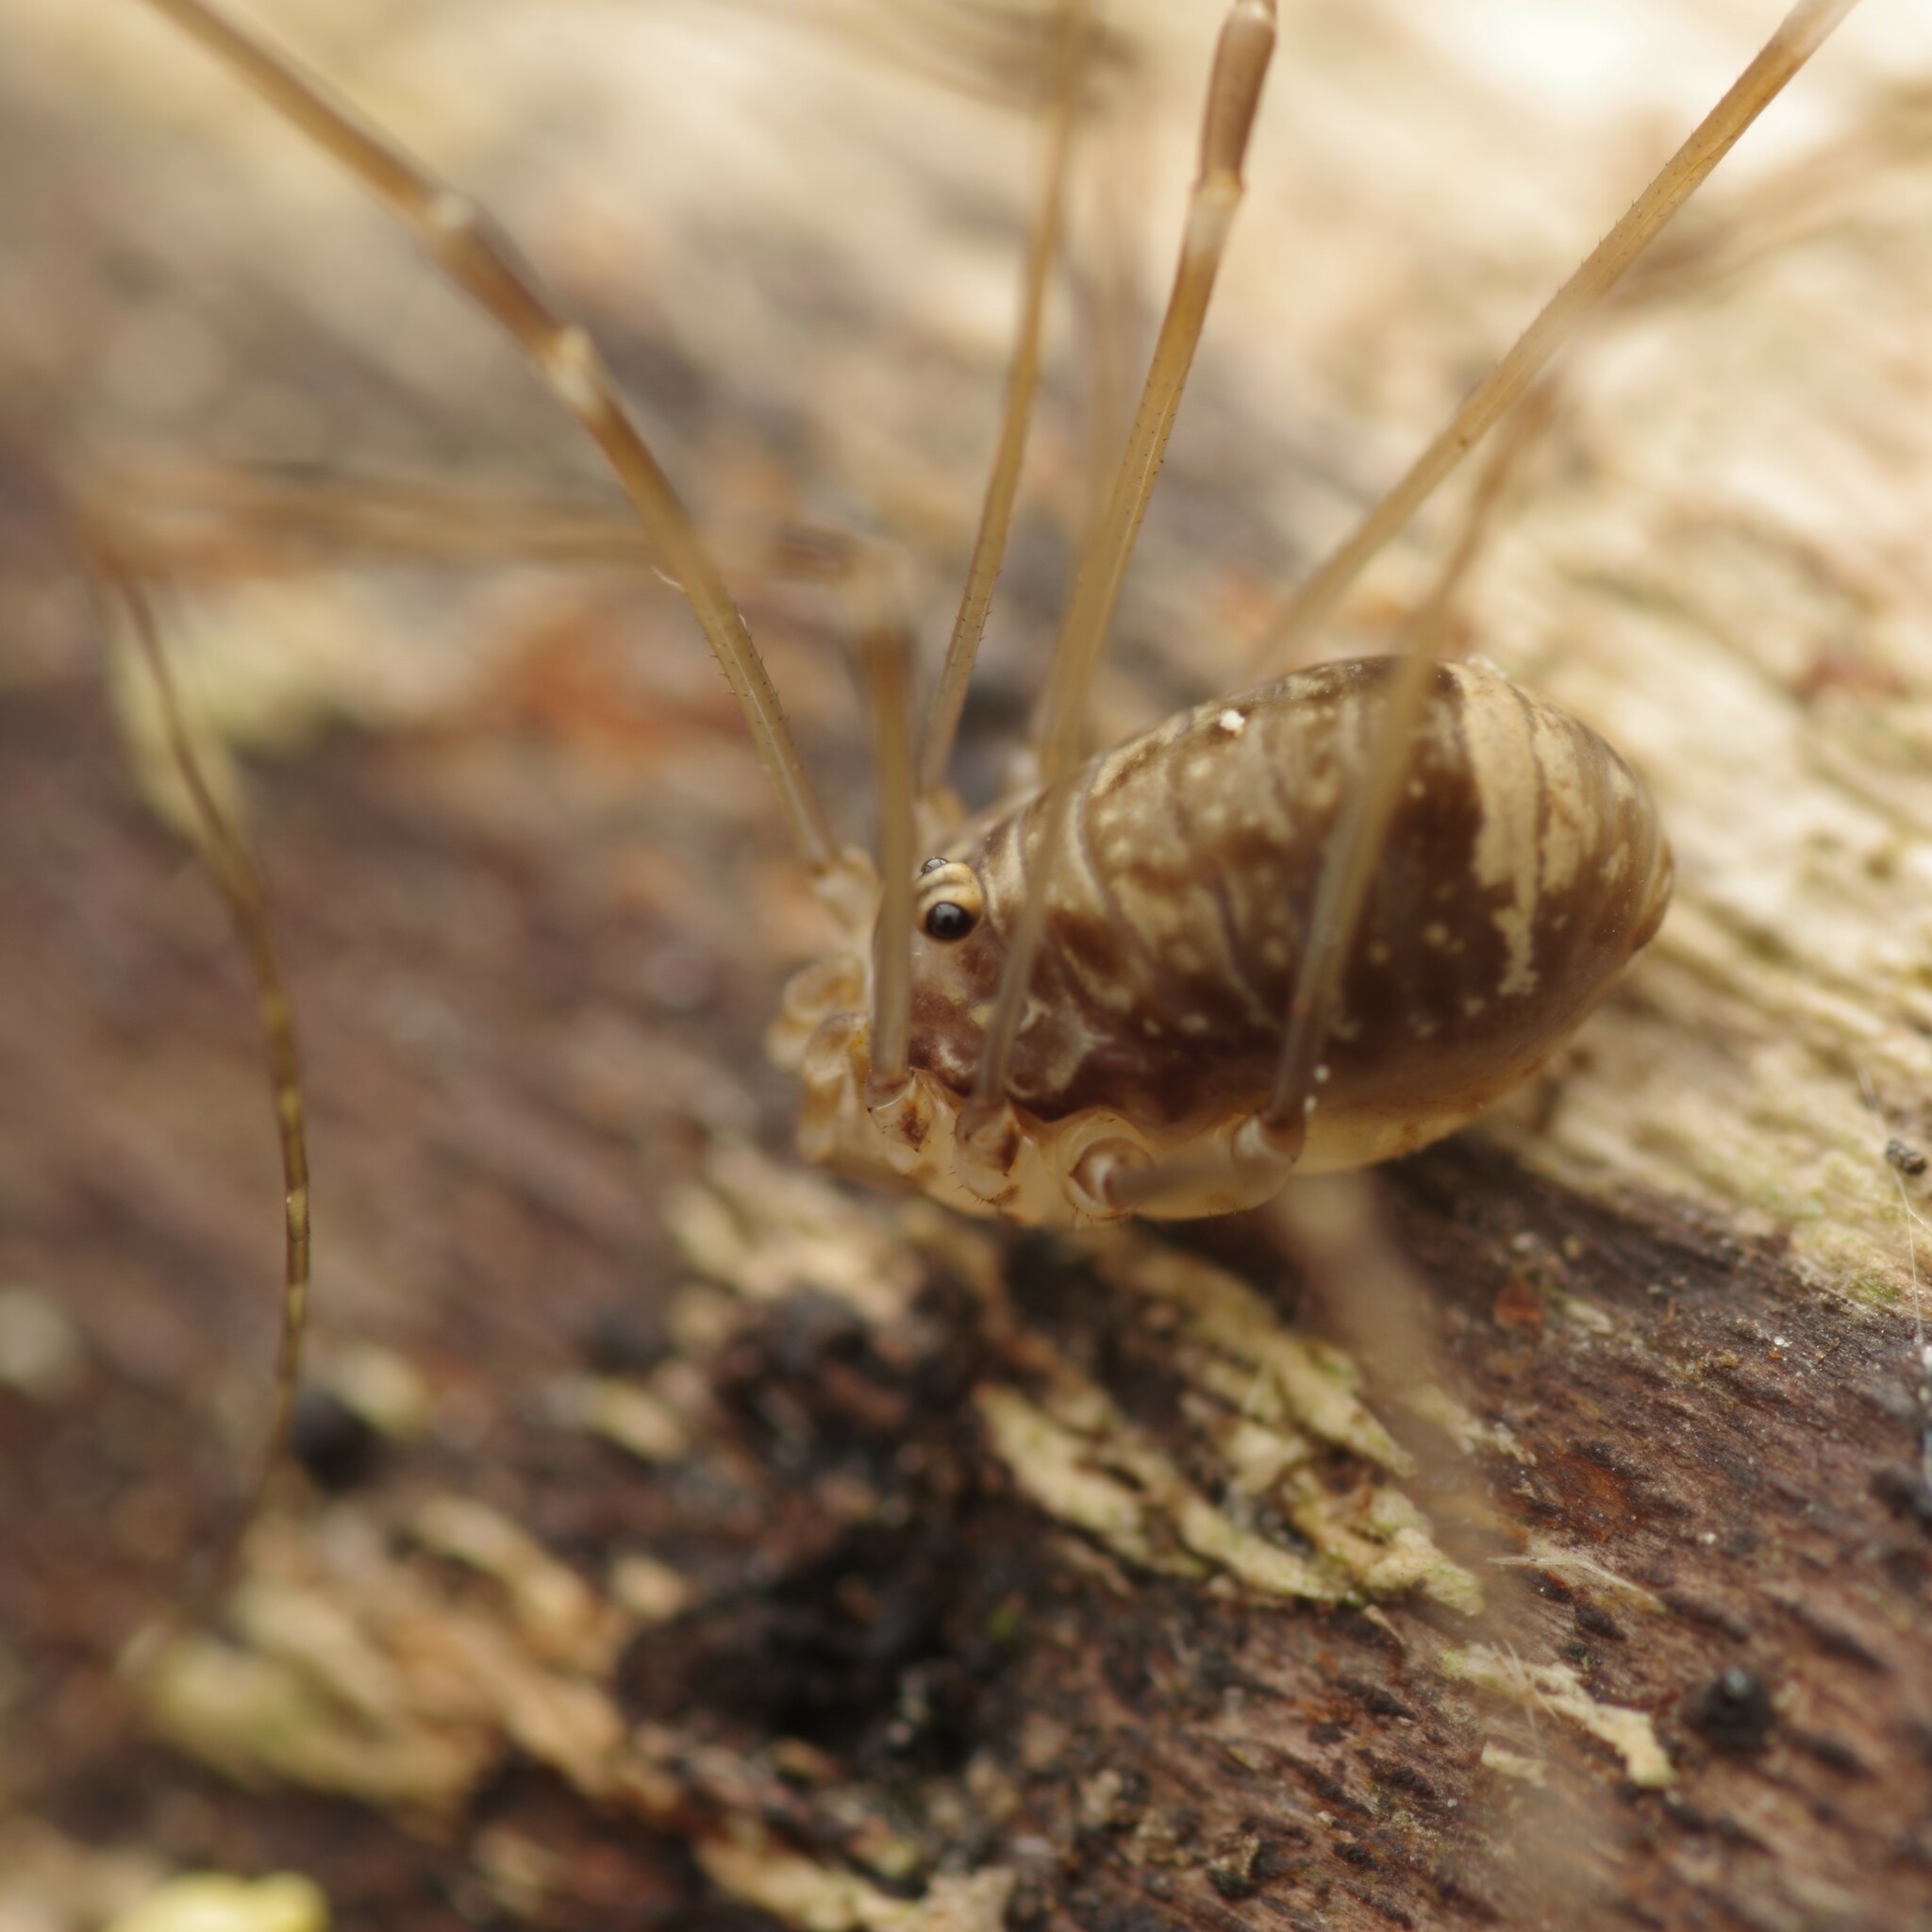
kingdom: Animalia
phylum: Arthropoda
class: Arachnida
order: Opiliones
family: Sclerosomatidae
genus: Leiobunum
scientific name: Leiobunum blackwalli
